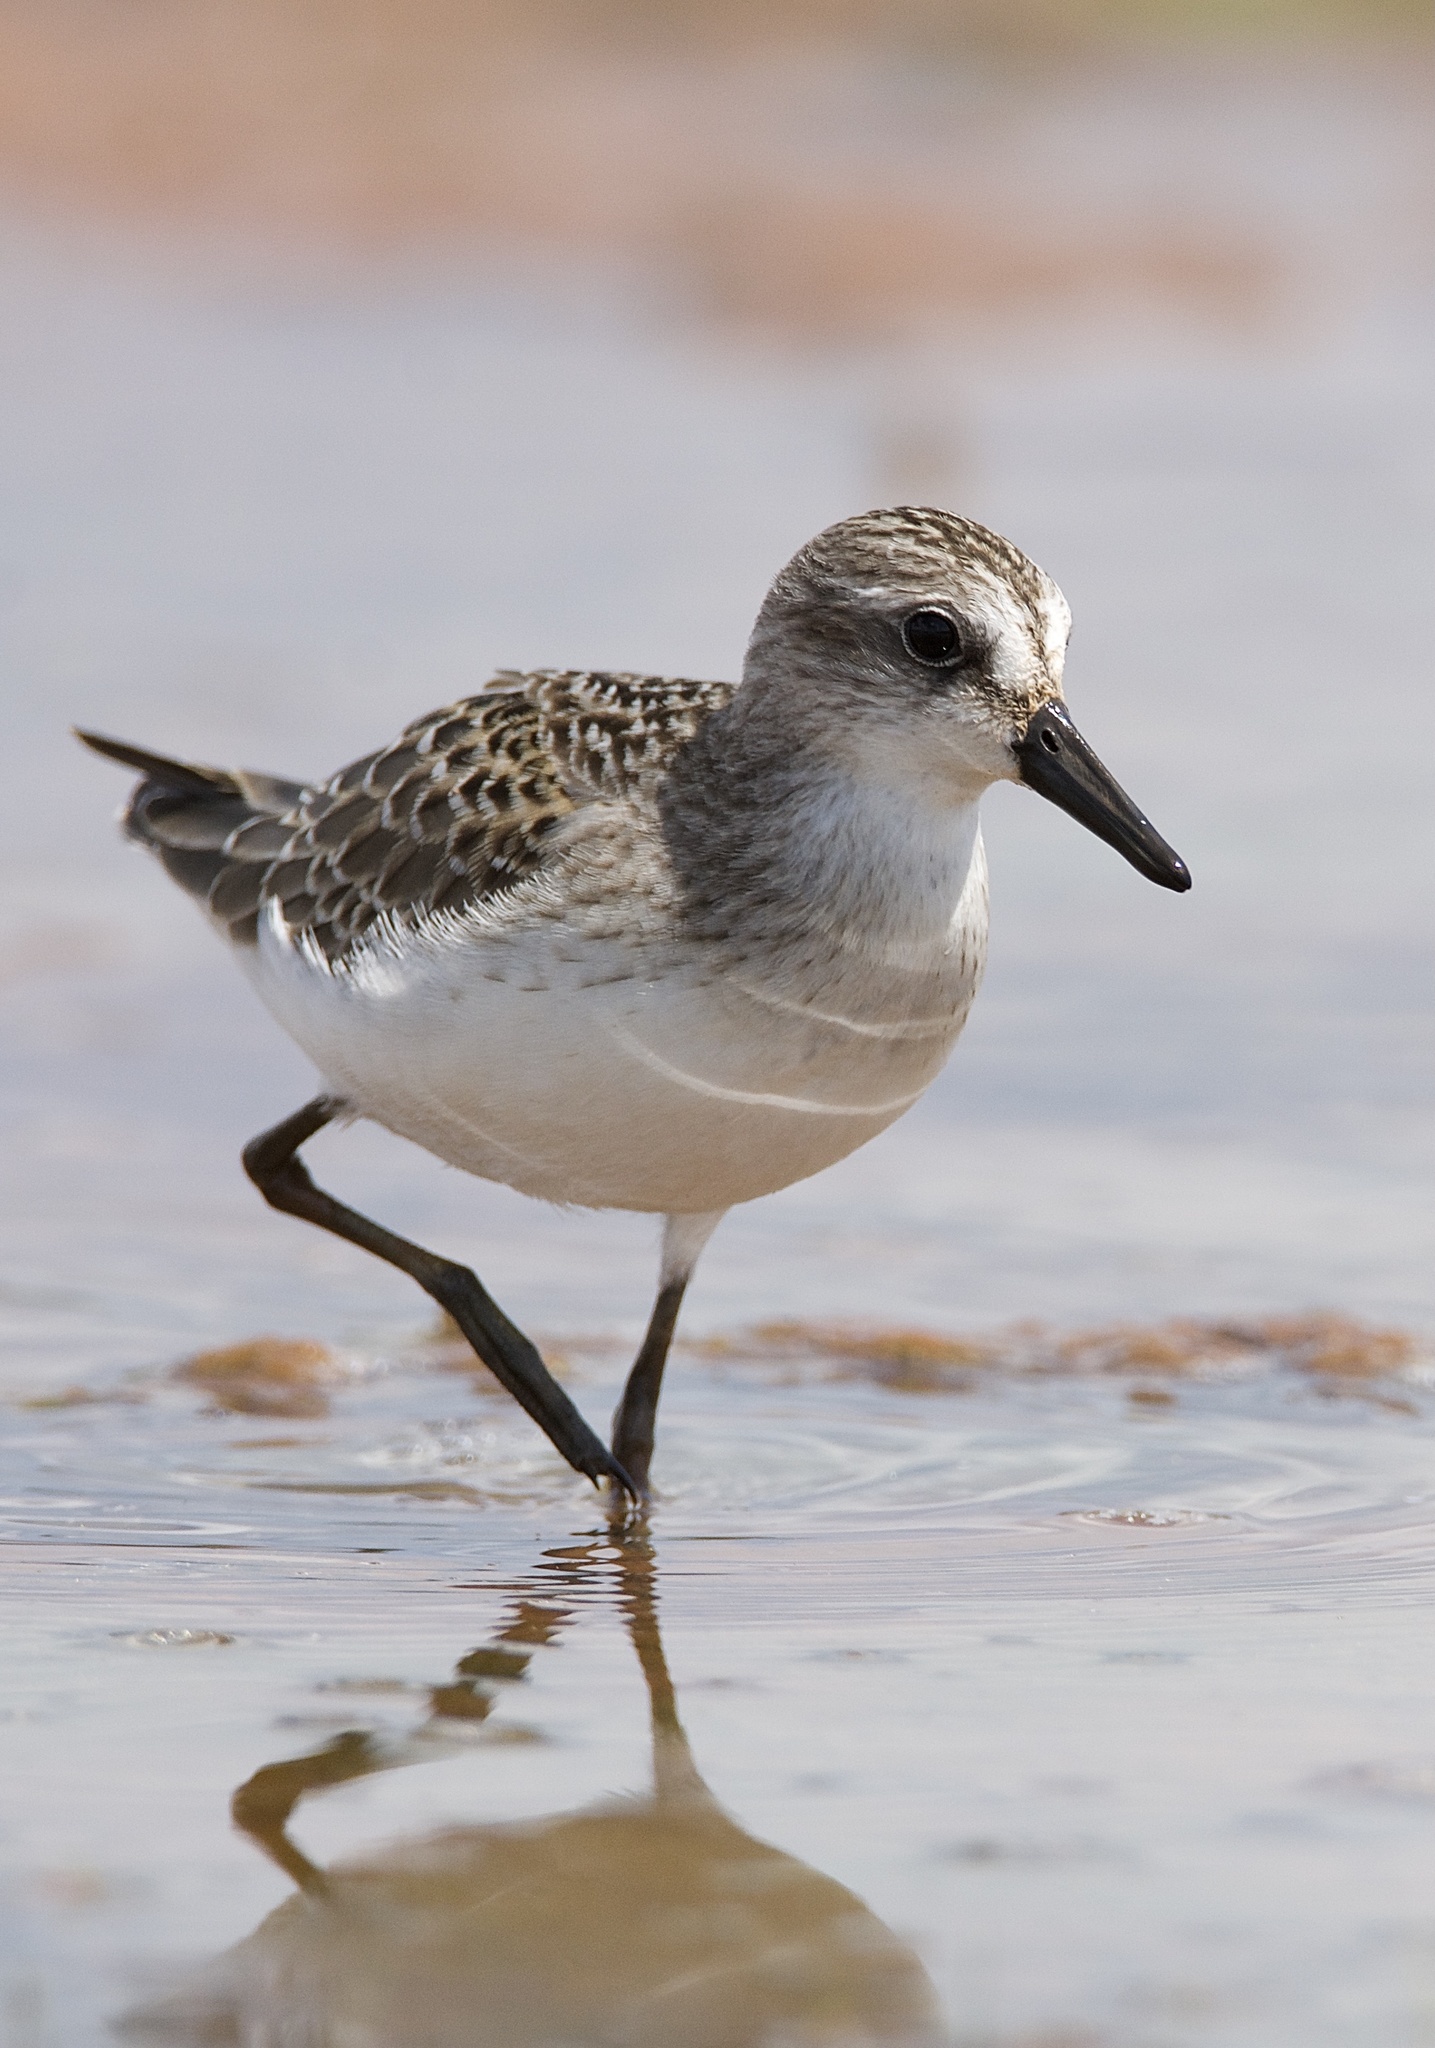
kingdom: Animalia
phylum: Chordata
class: Aves
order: Charadriiformes
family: Scolopacidae
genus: Calidris
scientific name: Calidris pusilla
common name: Semipalmated sandpiper
